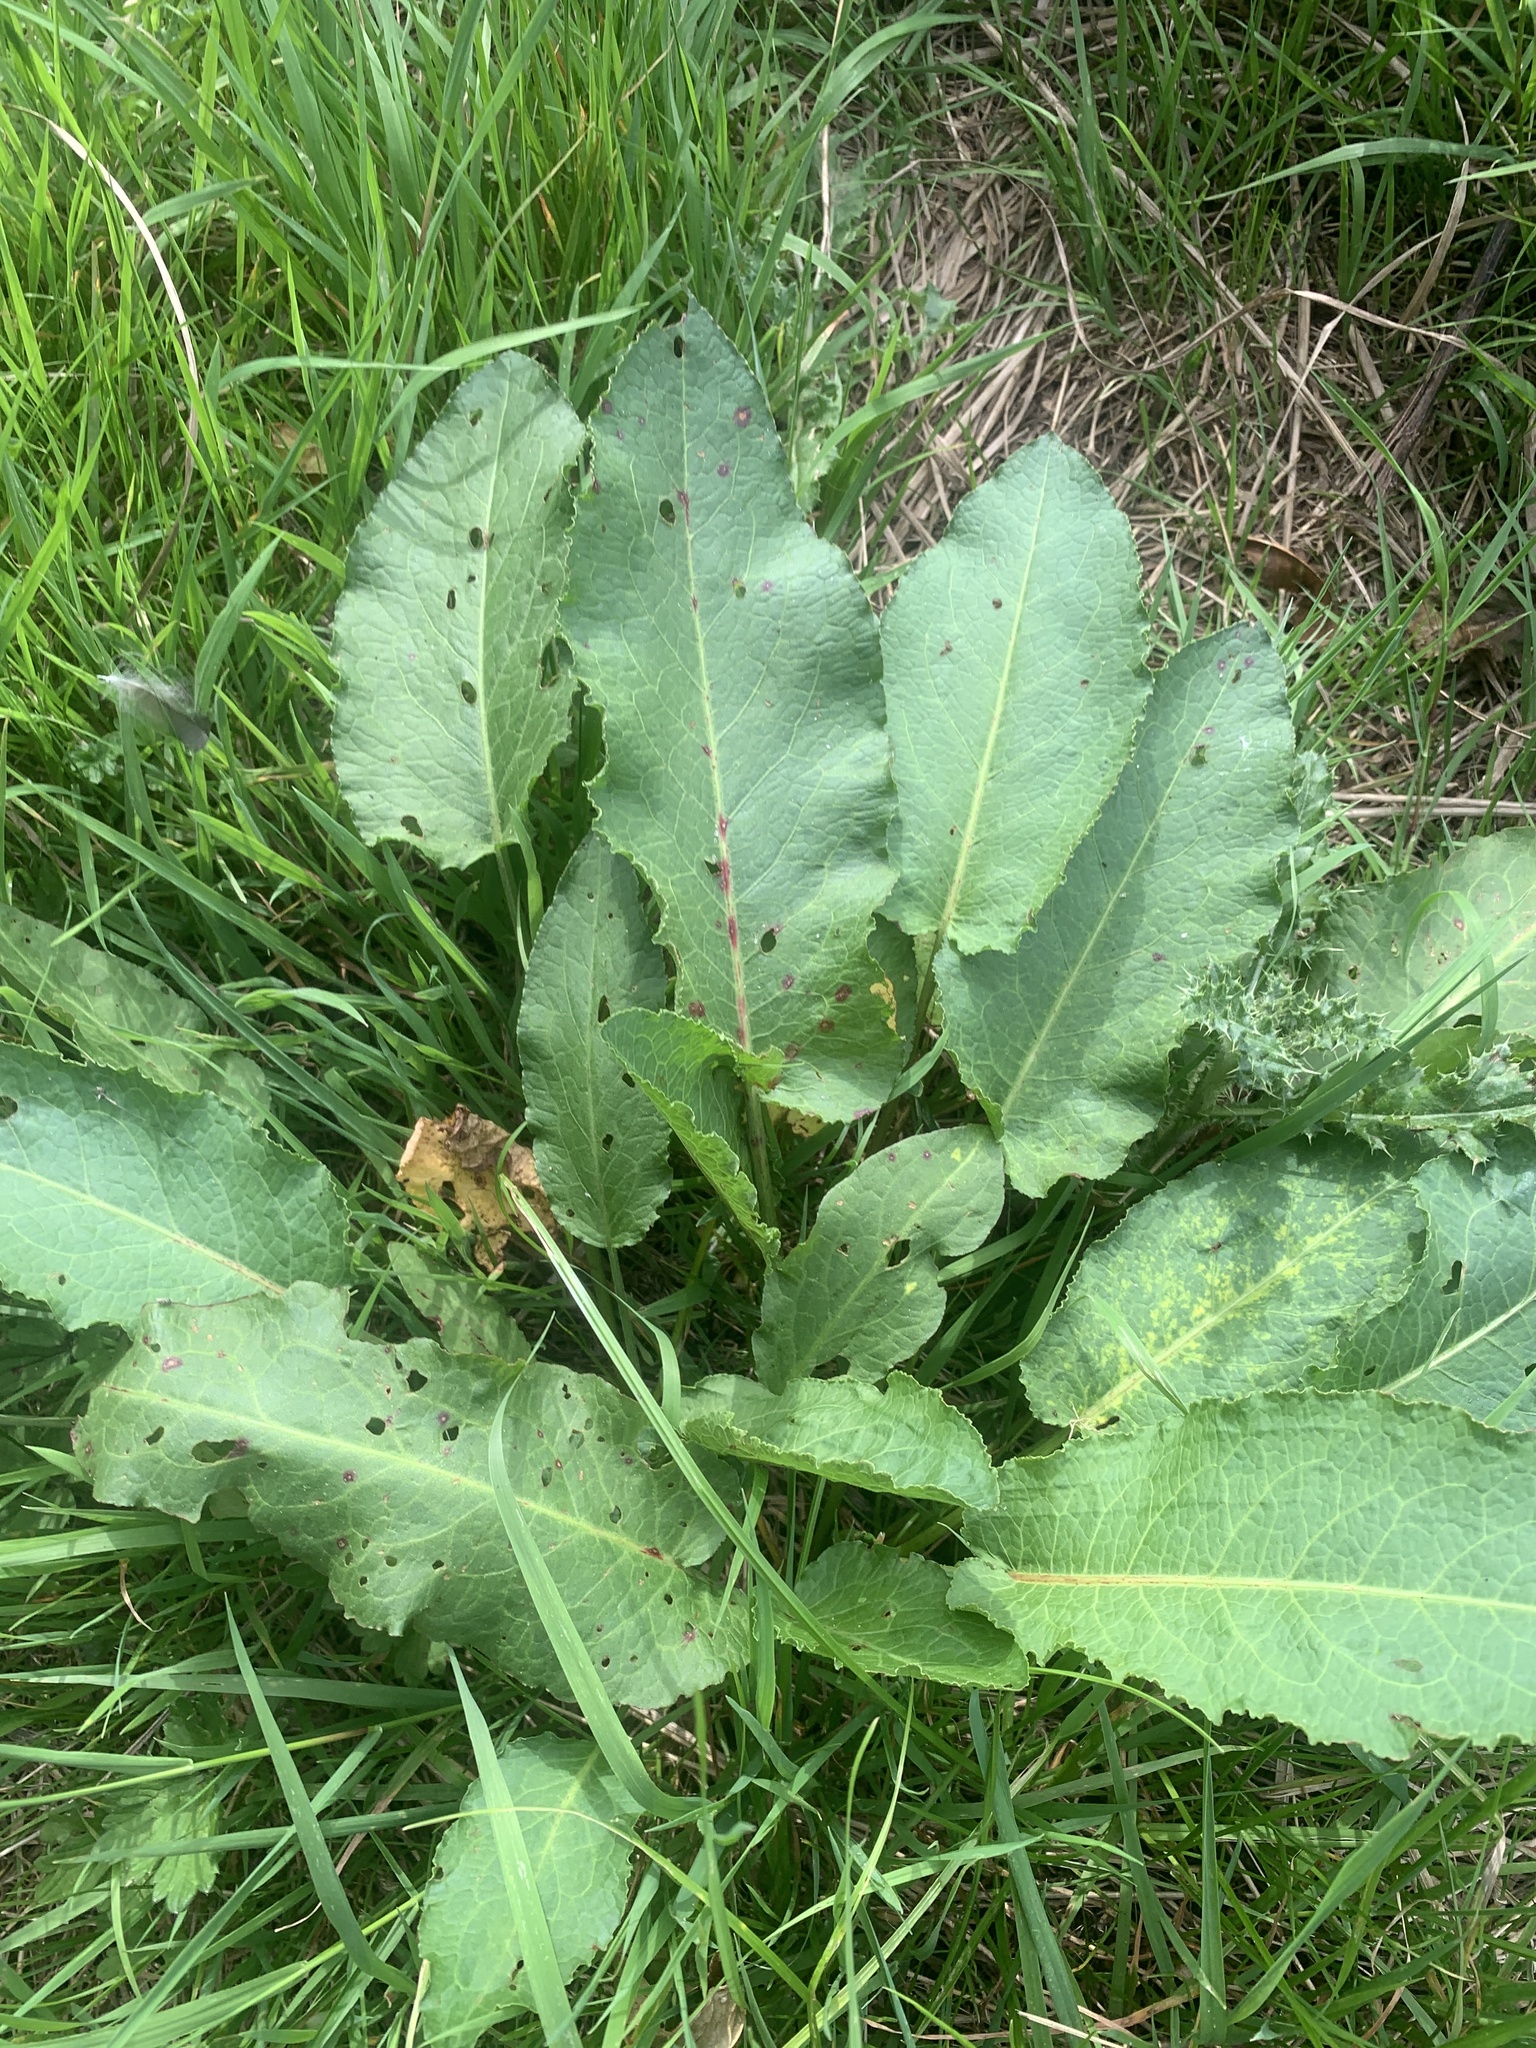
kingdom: Plantae
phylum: Tracheophyta
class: Magnoliopsida
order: Caryophyllales
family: Polygonaceae
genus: Rumex
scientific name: Rumex obtusifolius
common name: Bitter dock
